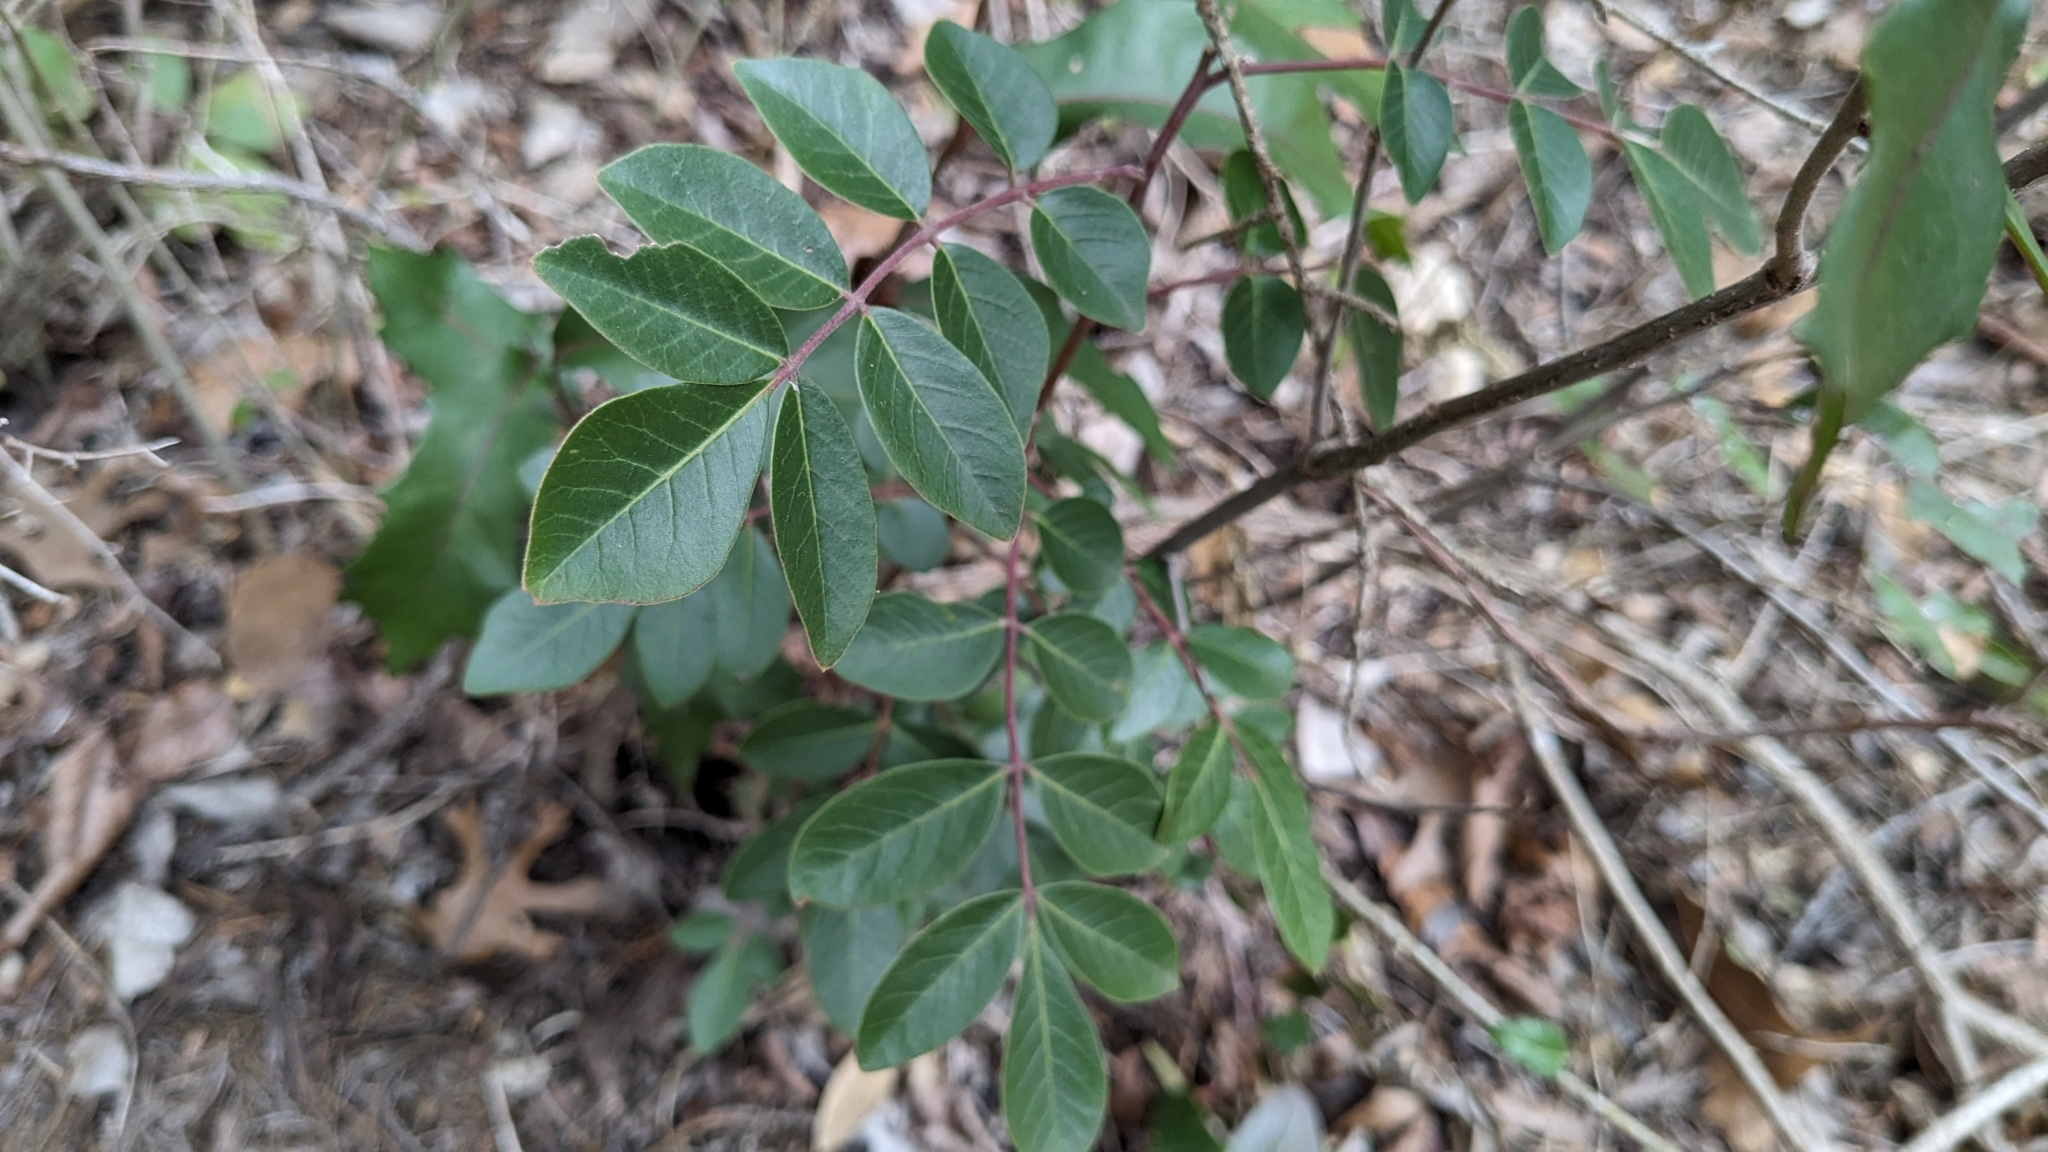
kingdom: Plantae
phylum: Tracheophyta
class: Magnoliopsida
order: Sapindales
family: Anacardiaceae
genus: Rhus
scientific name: Rhus virens
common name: Evergreen sumac
